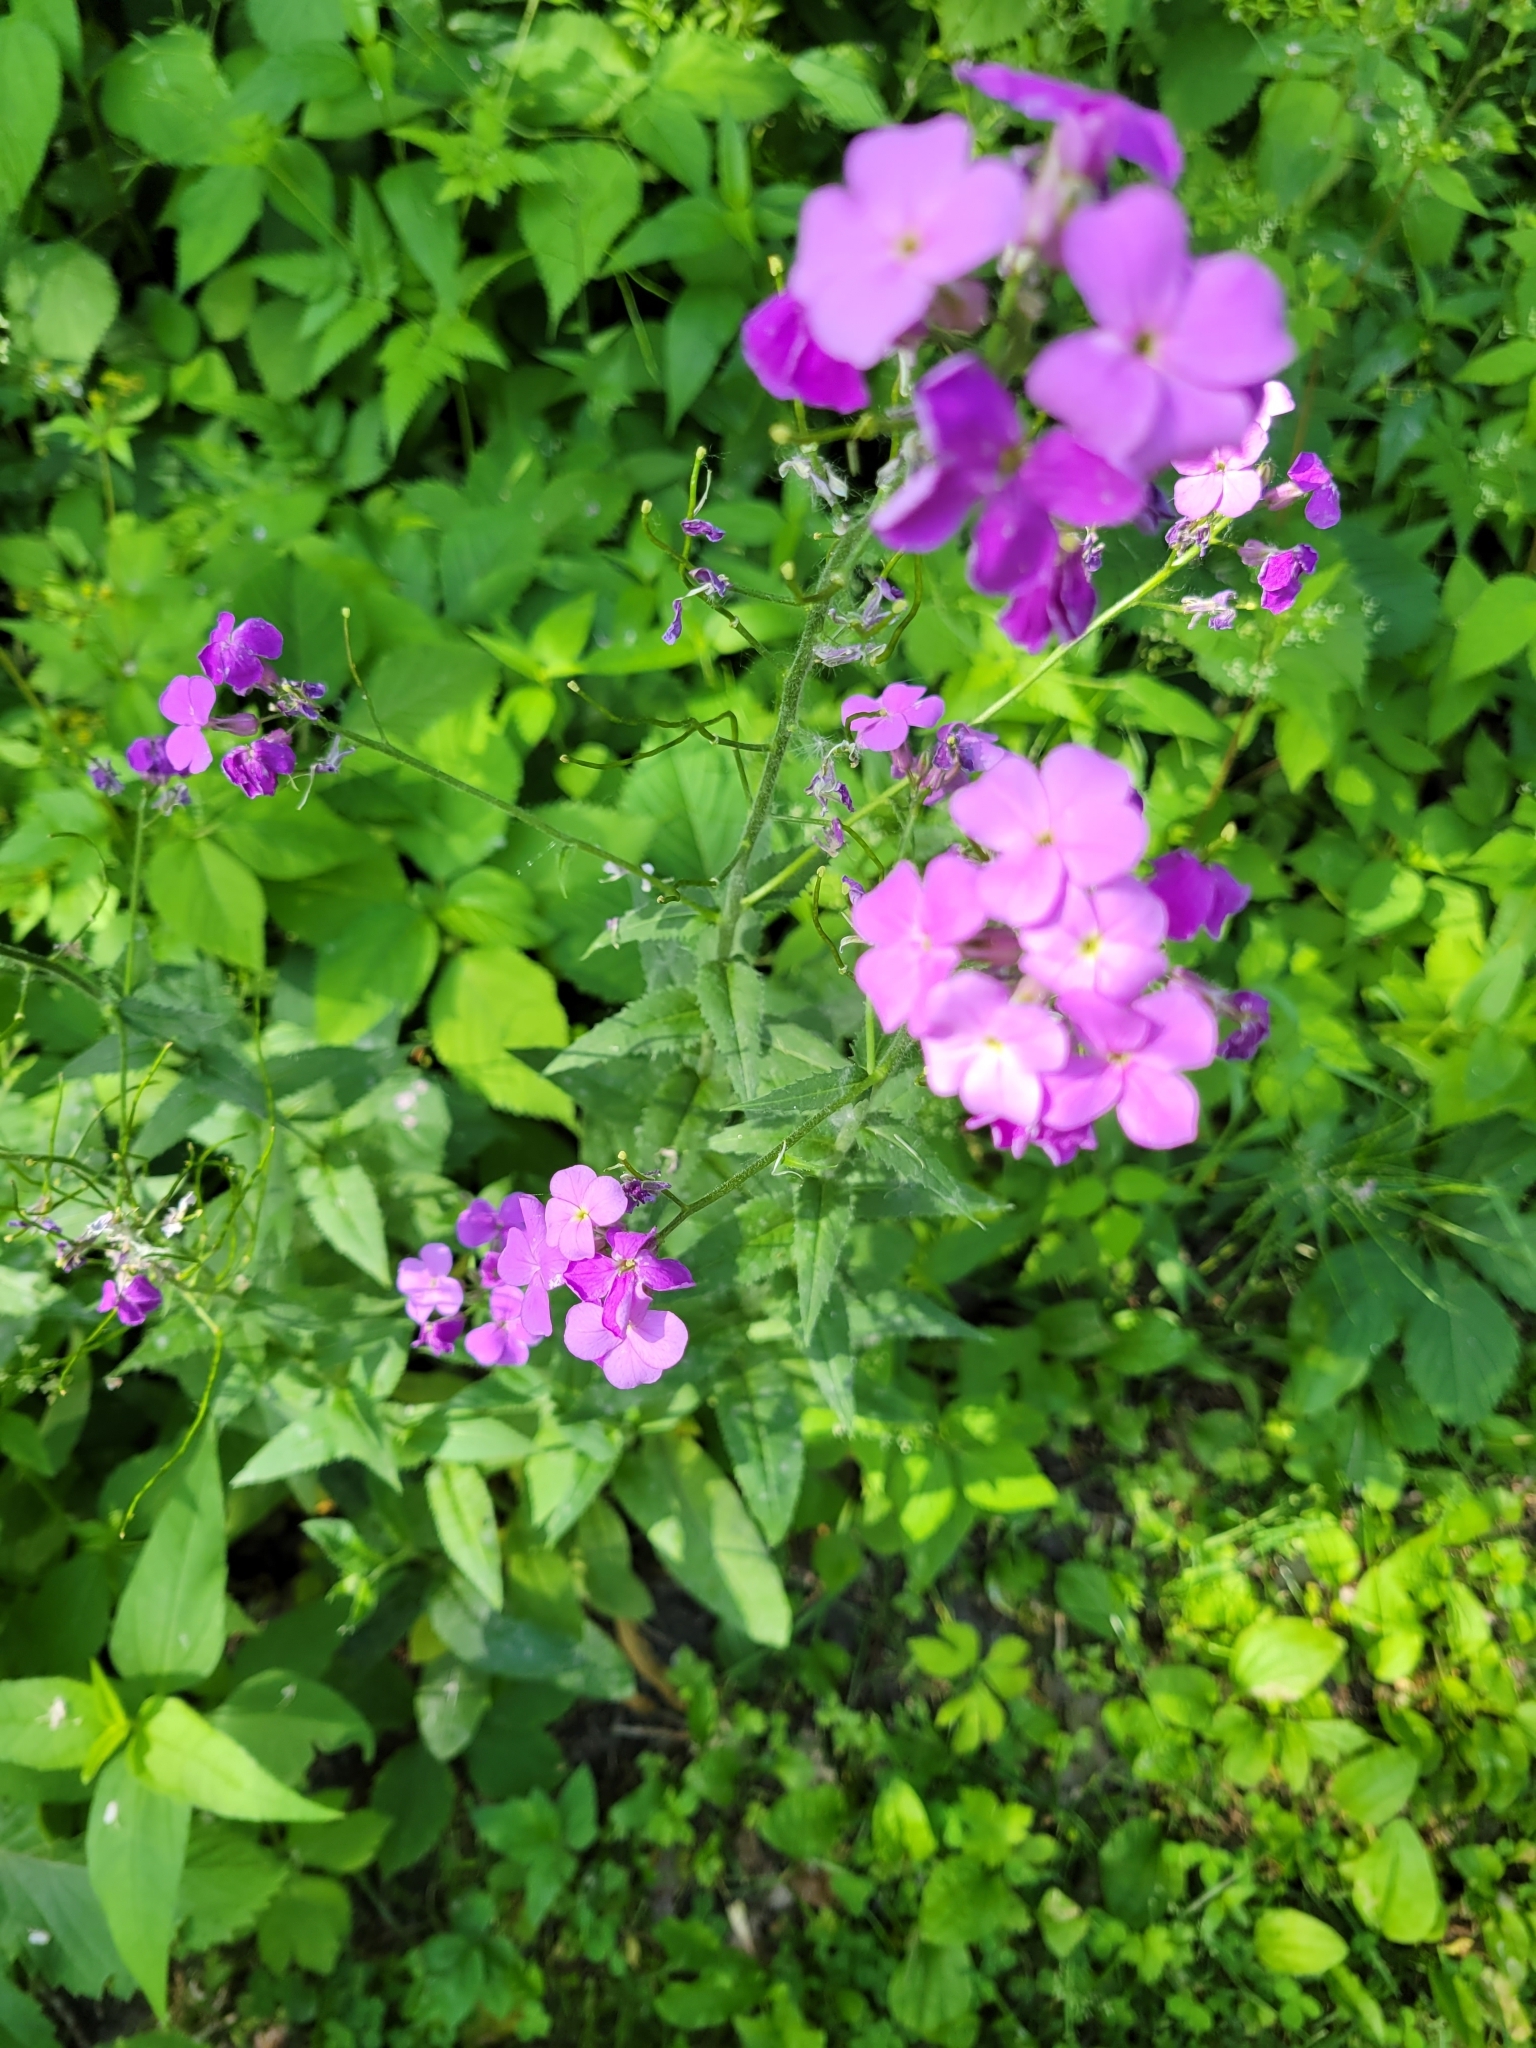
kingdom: Plantae
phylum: Tracheophyta
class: Magnoliopsida
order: Brassicales
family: Brassicaceae
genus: Hesperis
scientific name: Hesperis matronalis
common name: Dame's-violet
